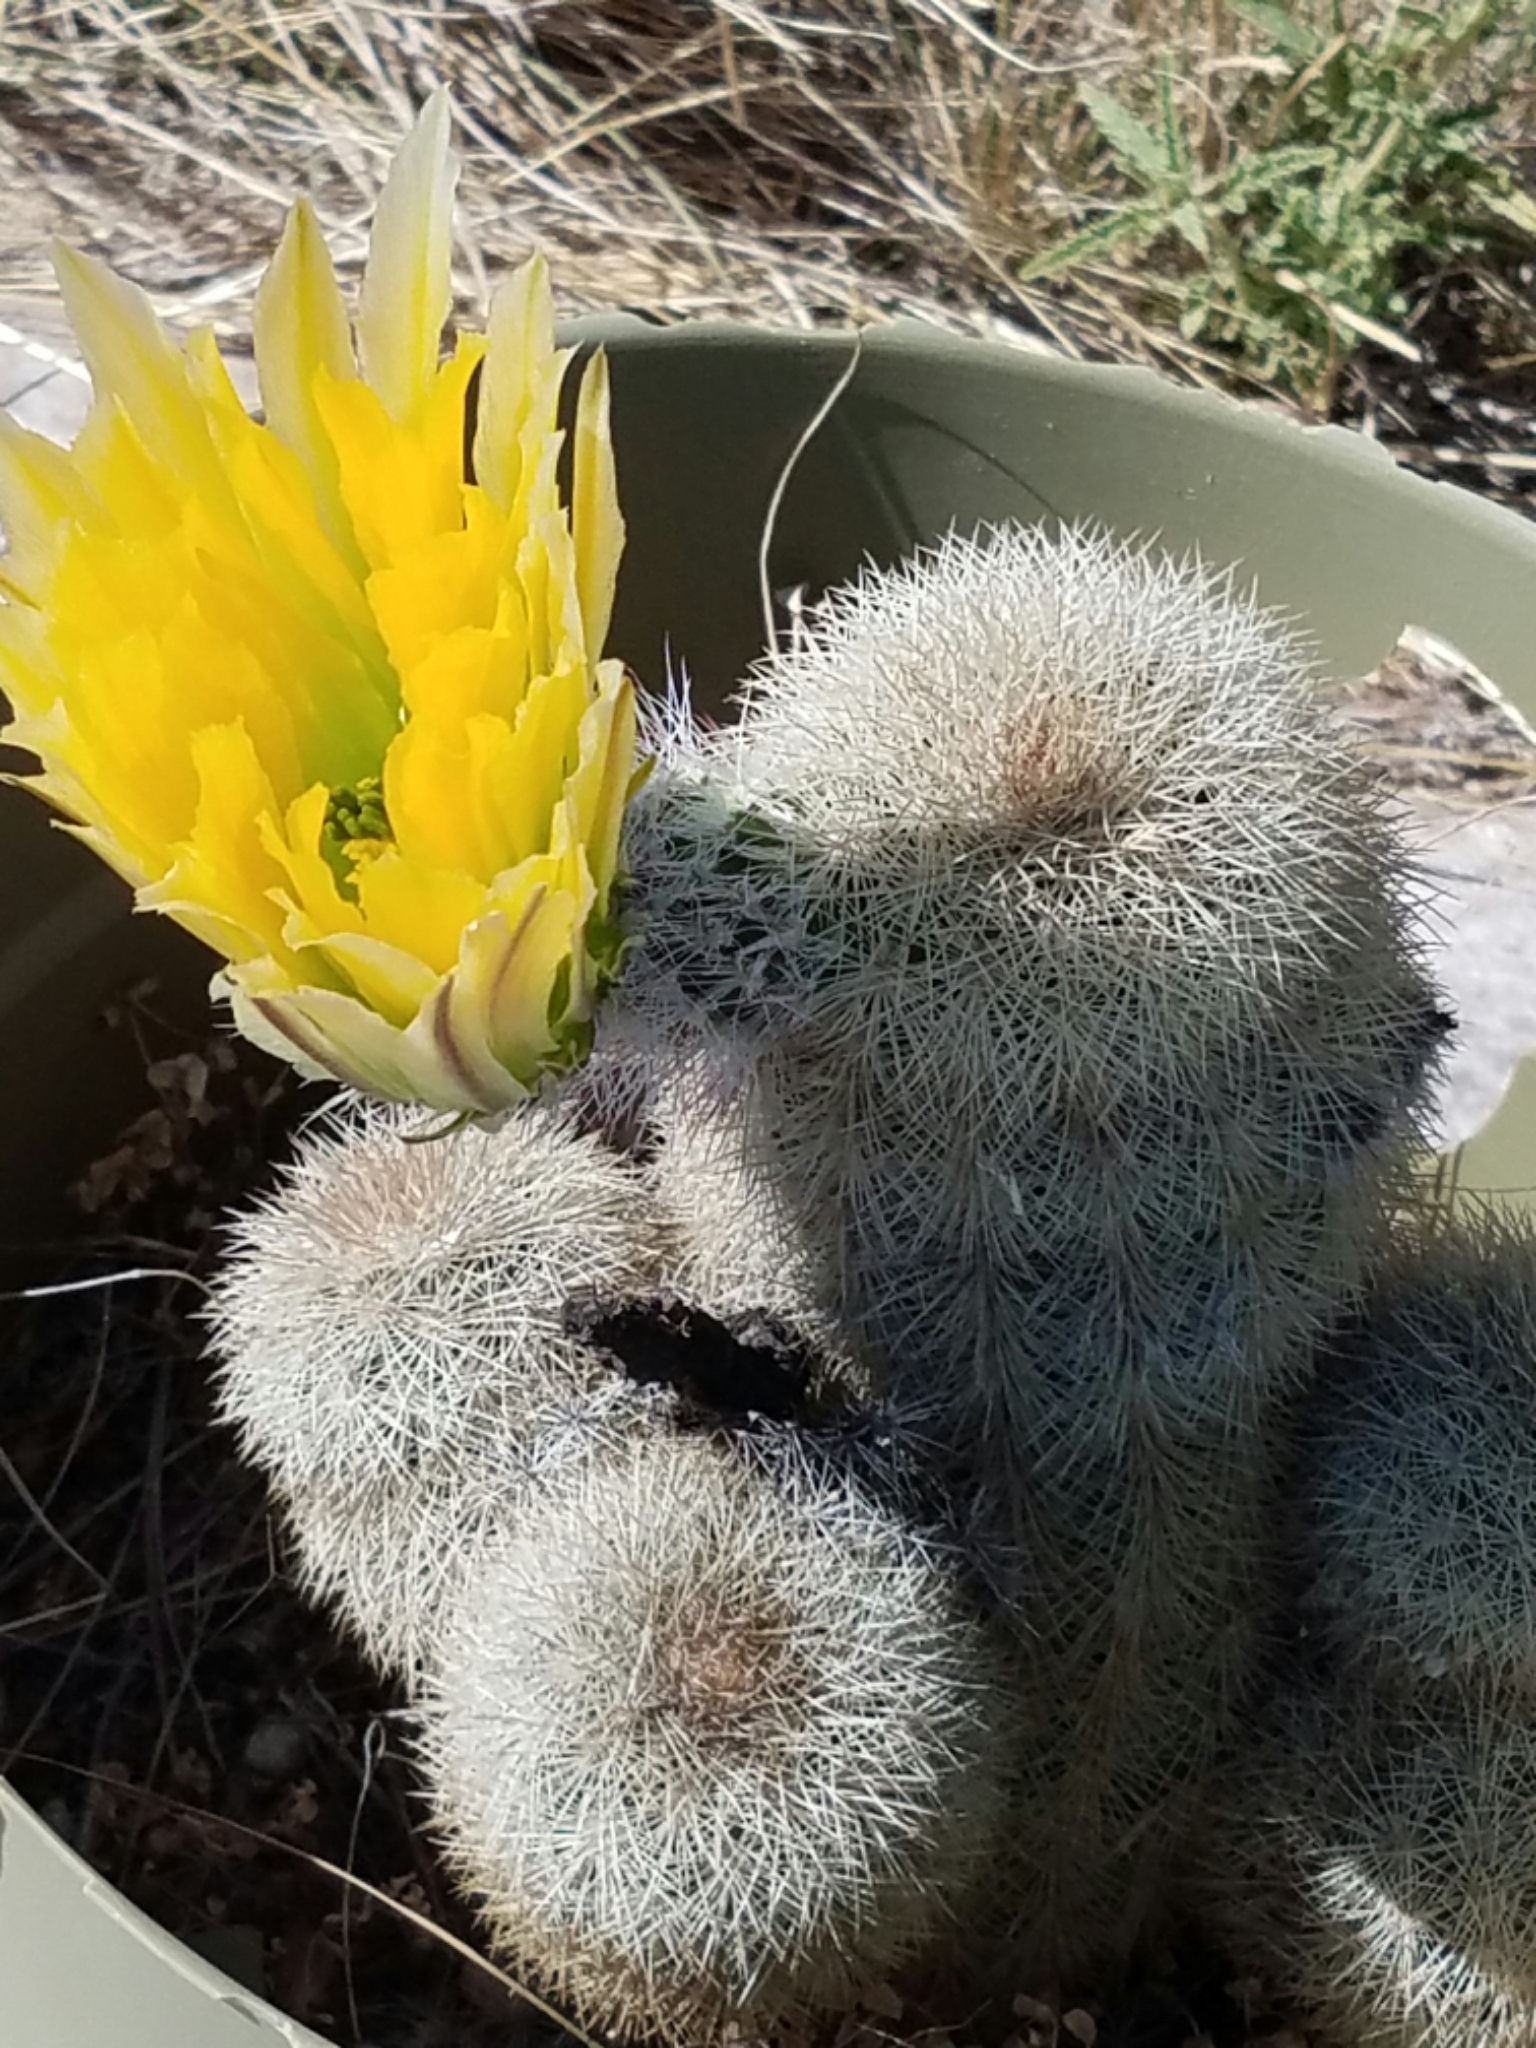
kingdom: Plantae
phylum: Tracheophyta
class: Magnoliopsida
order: Caryophyllales
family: Cactaceae
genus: Echinocereus
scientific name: Echinocereus dasyacanthus
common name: Spiny hedgehog cactus
